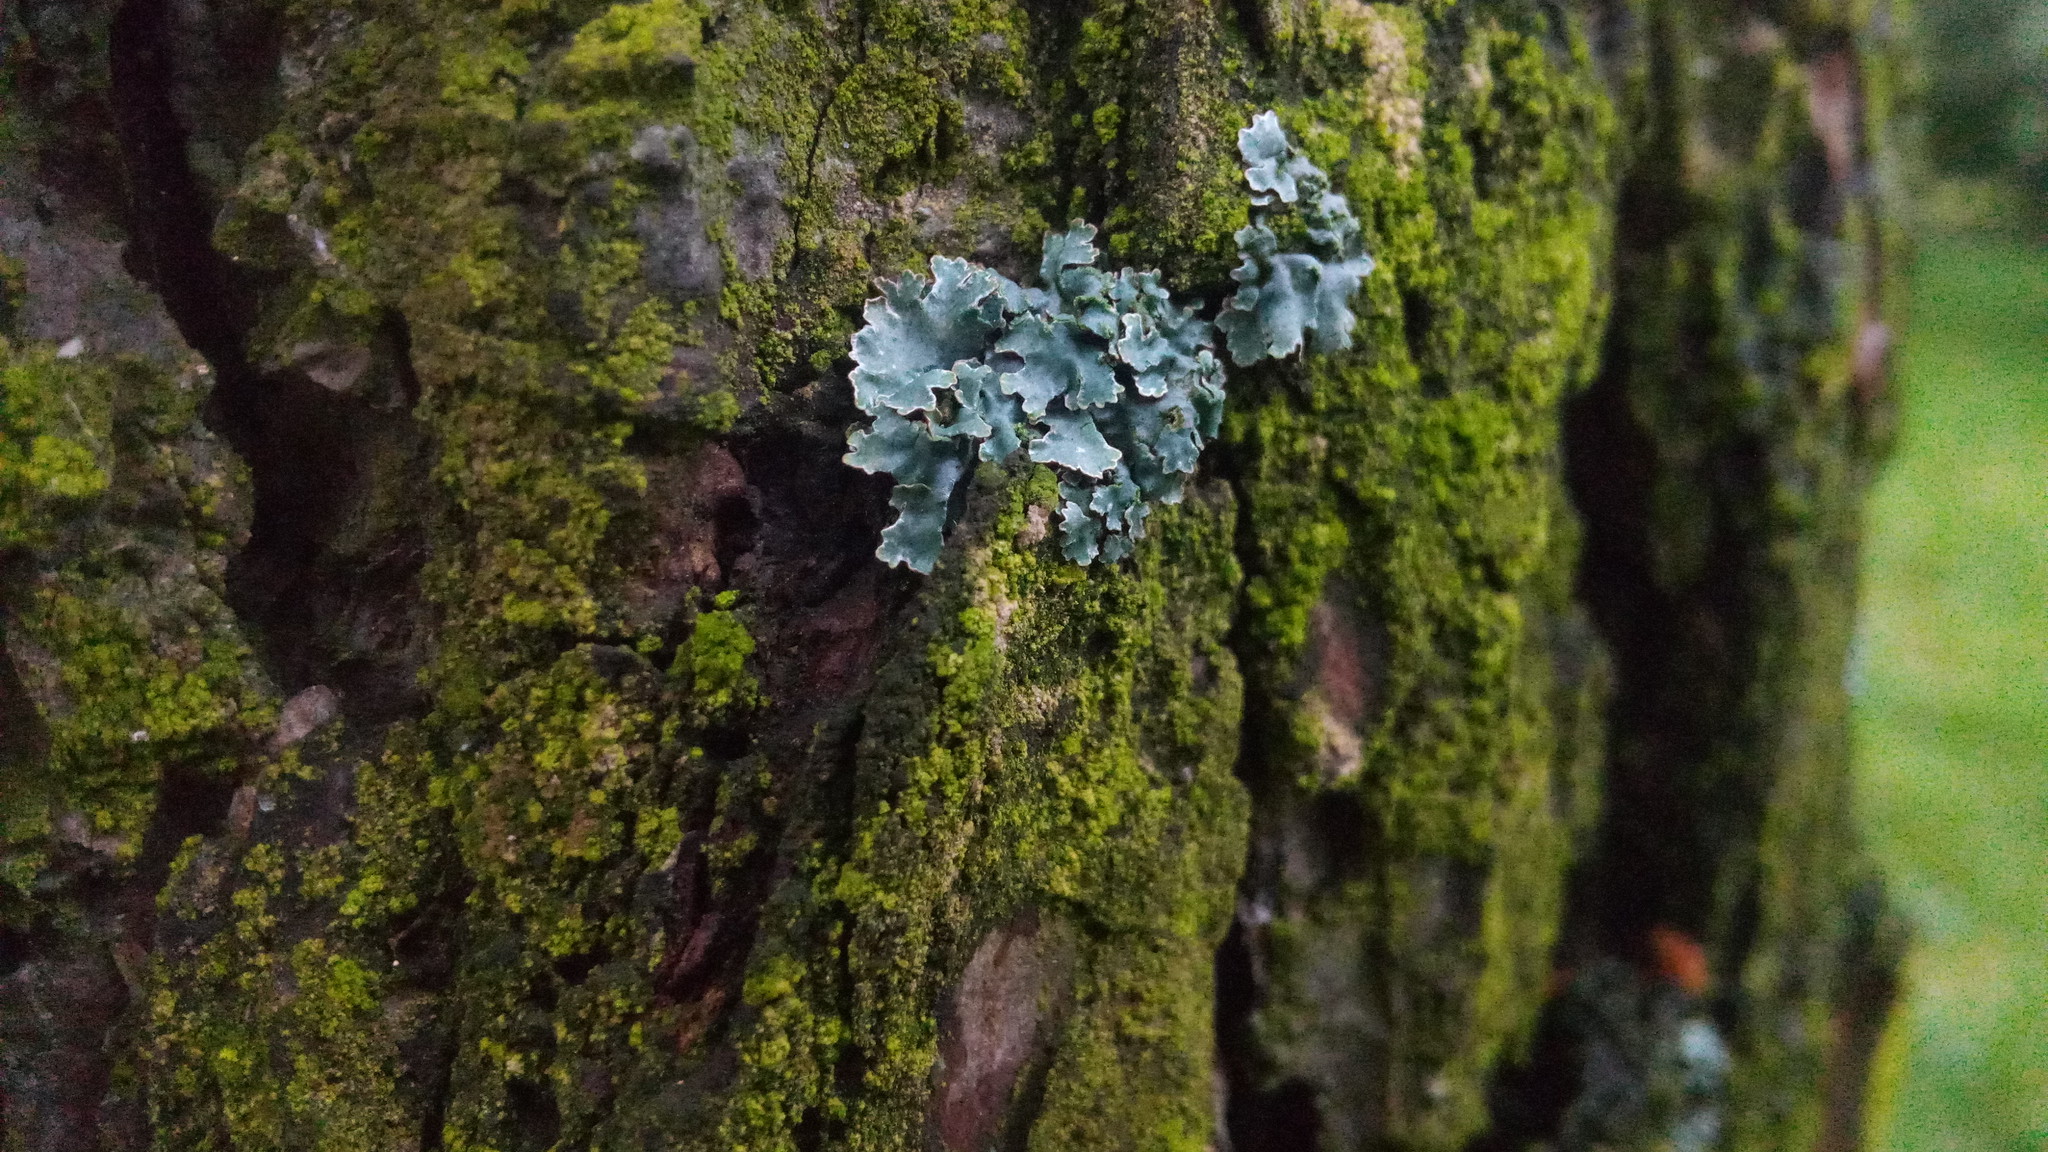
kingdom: Fungi
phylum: Ascomycota
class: Lecanoromycetes
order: Lecanorales
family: Parmeliaceae
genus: Parmelia
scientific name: Parmelia sulcata
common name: Netted shield lichen
